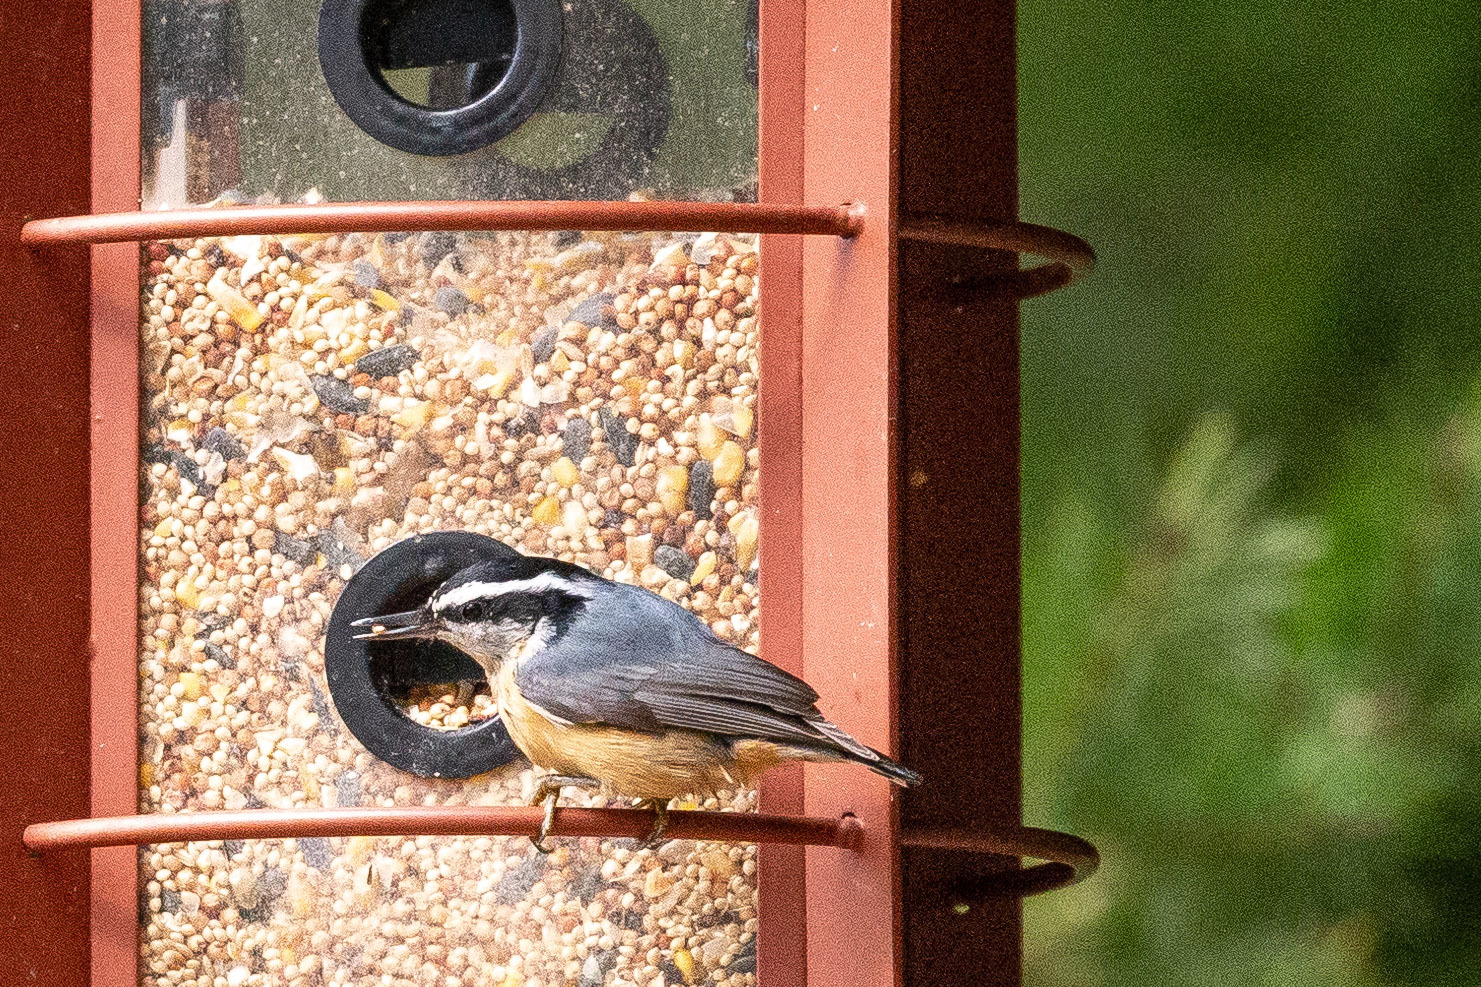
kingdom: Animalia
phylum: Chordata
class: Aves
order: Passeriformes
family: Sittidae
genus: Sitta
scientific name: Sitta canadensis
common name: Red-breasted nuthatch
